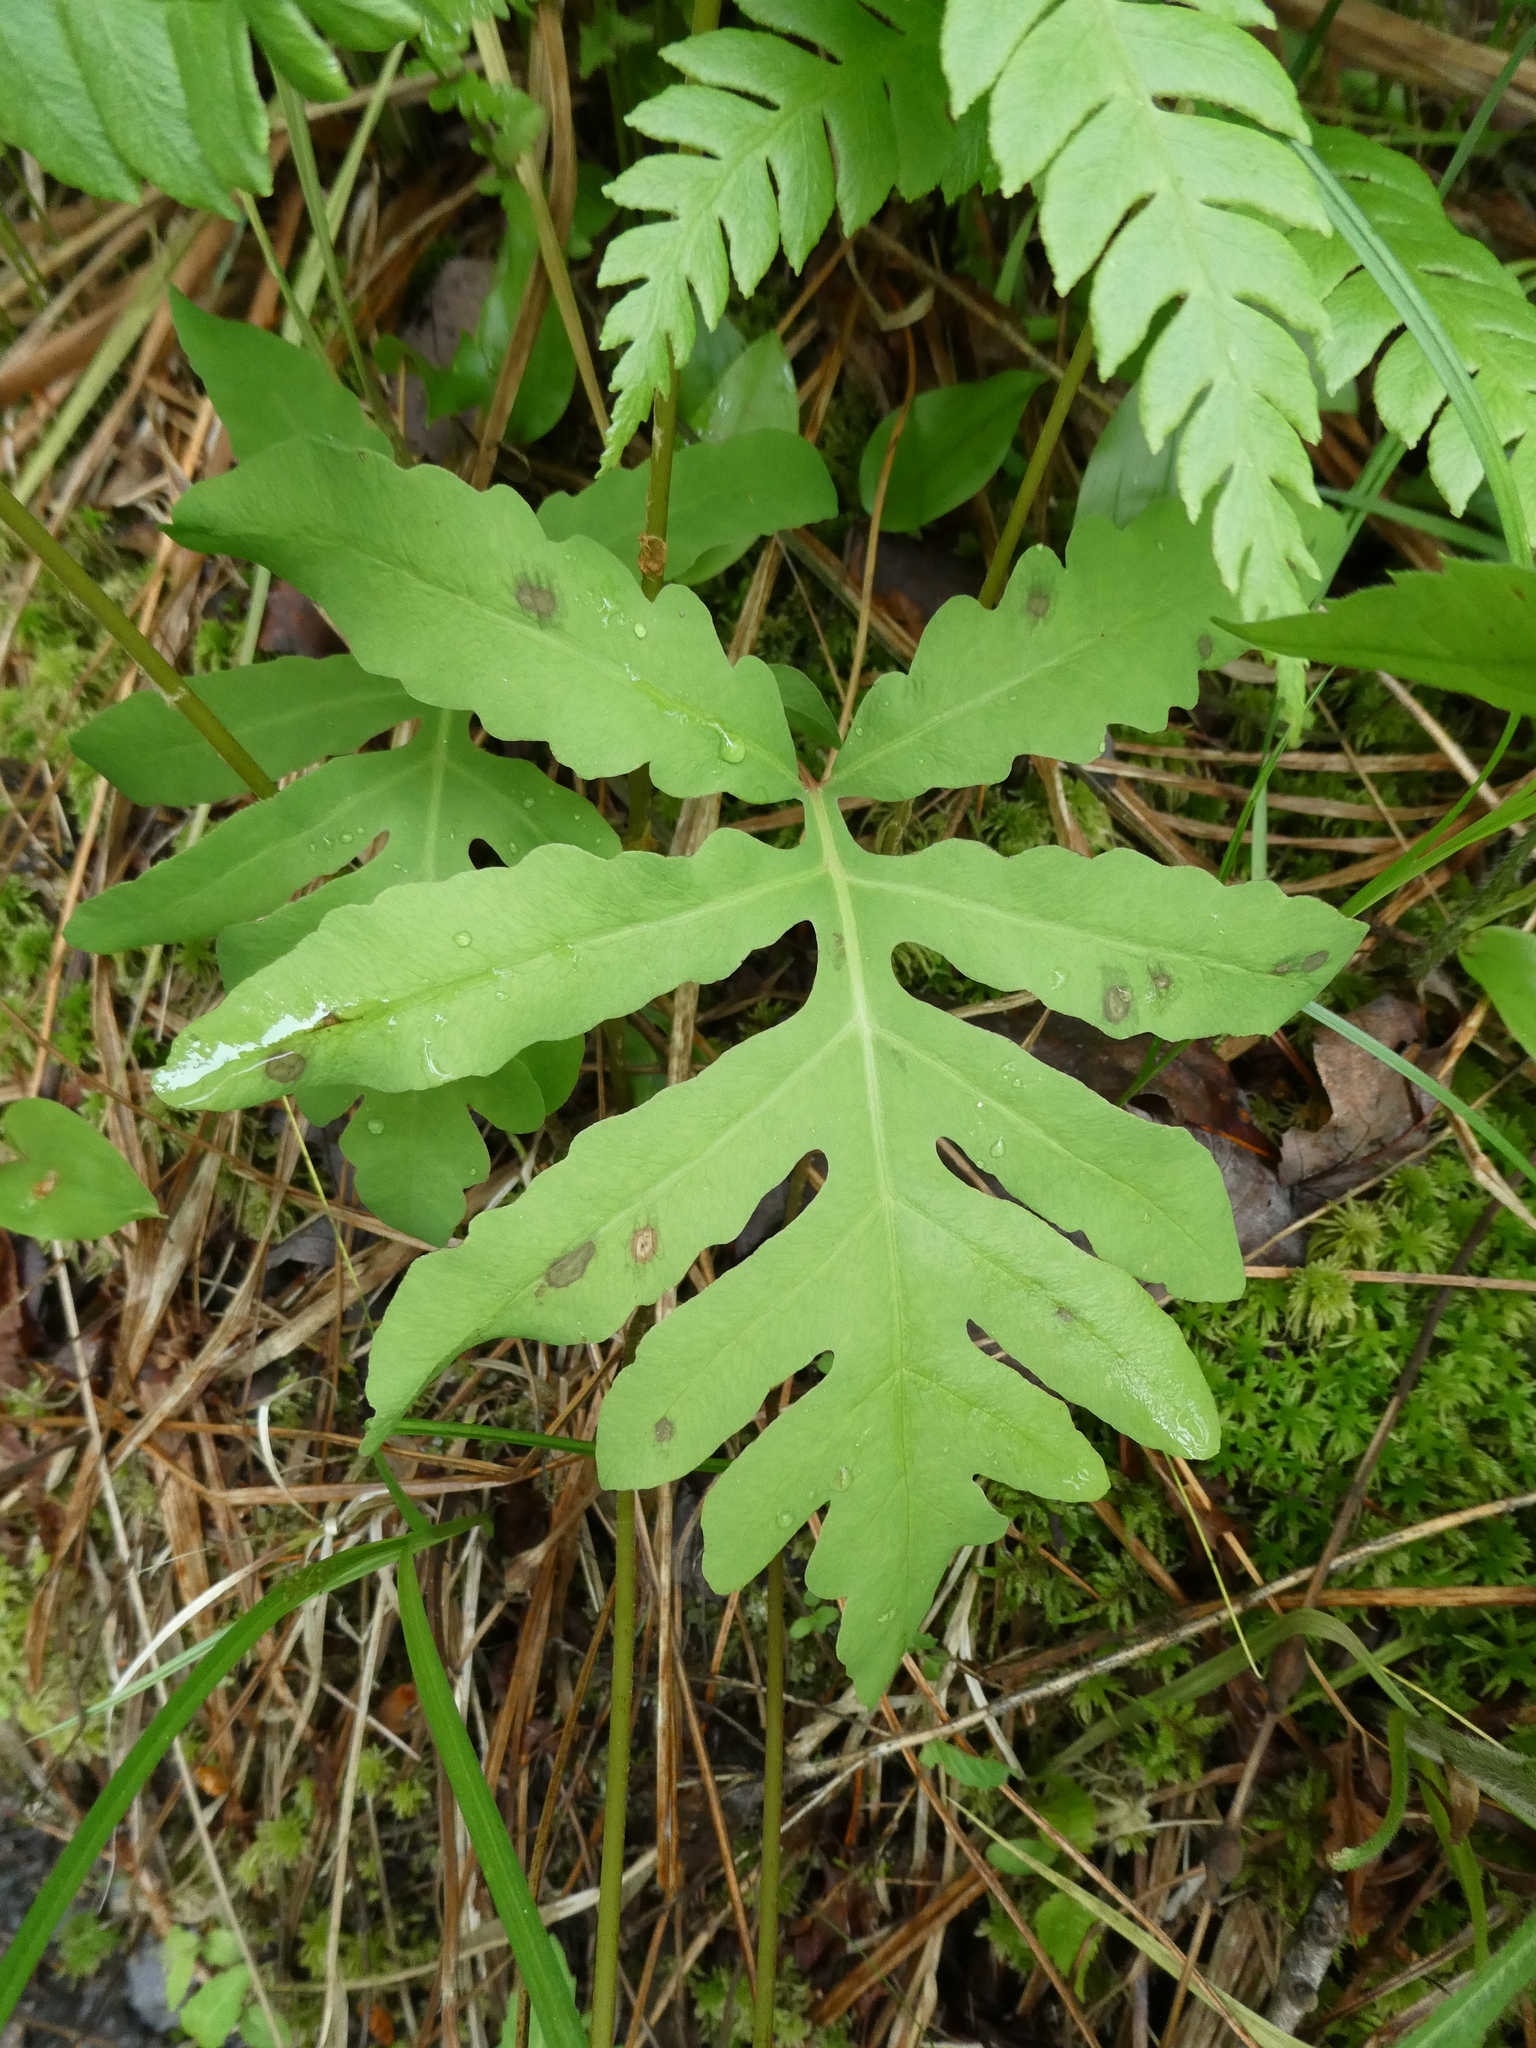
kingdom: Plantae
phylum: Tracheophyta
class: Polypodiopsida
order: Polypodiales
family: Onocleaceae
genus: Onoclea
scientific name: Onoclea sensibilis
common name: Sensitive fern
